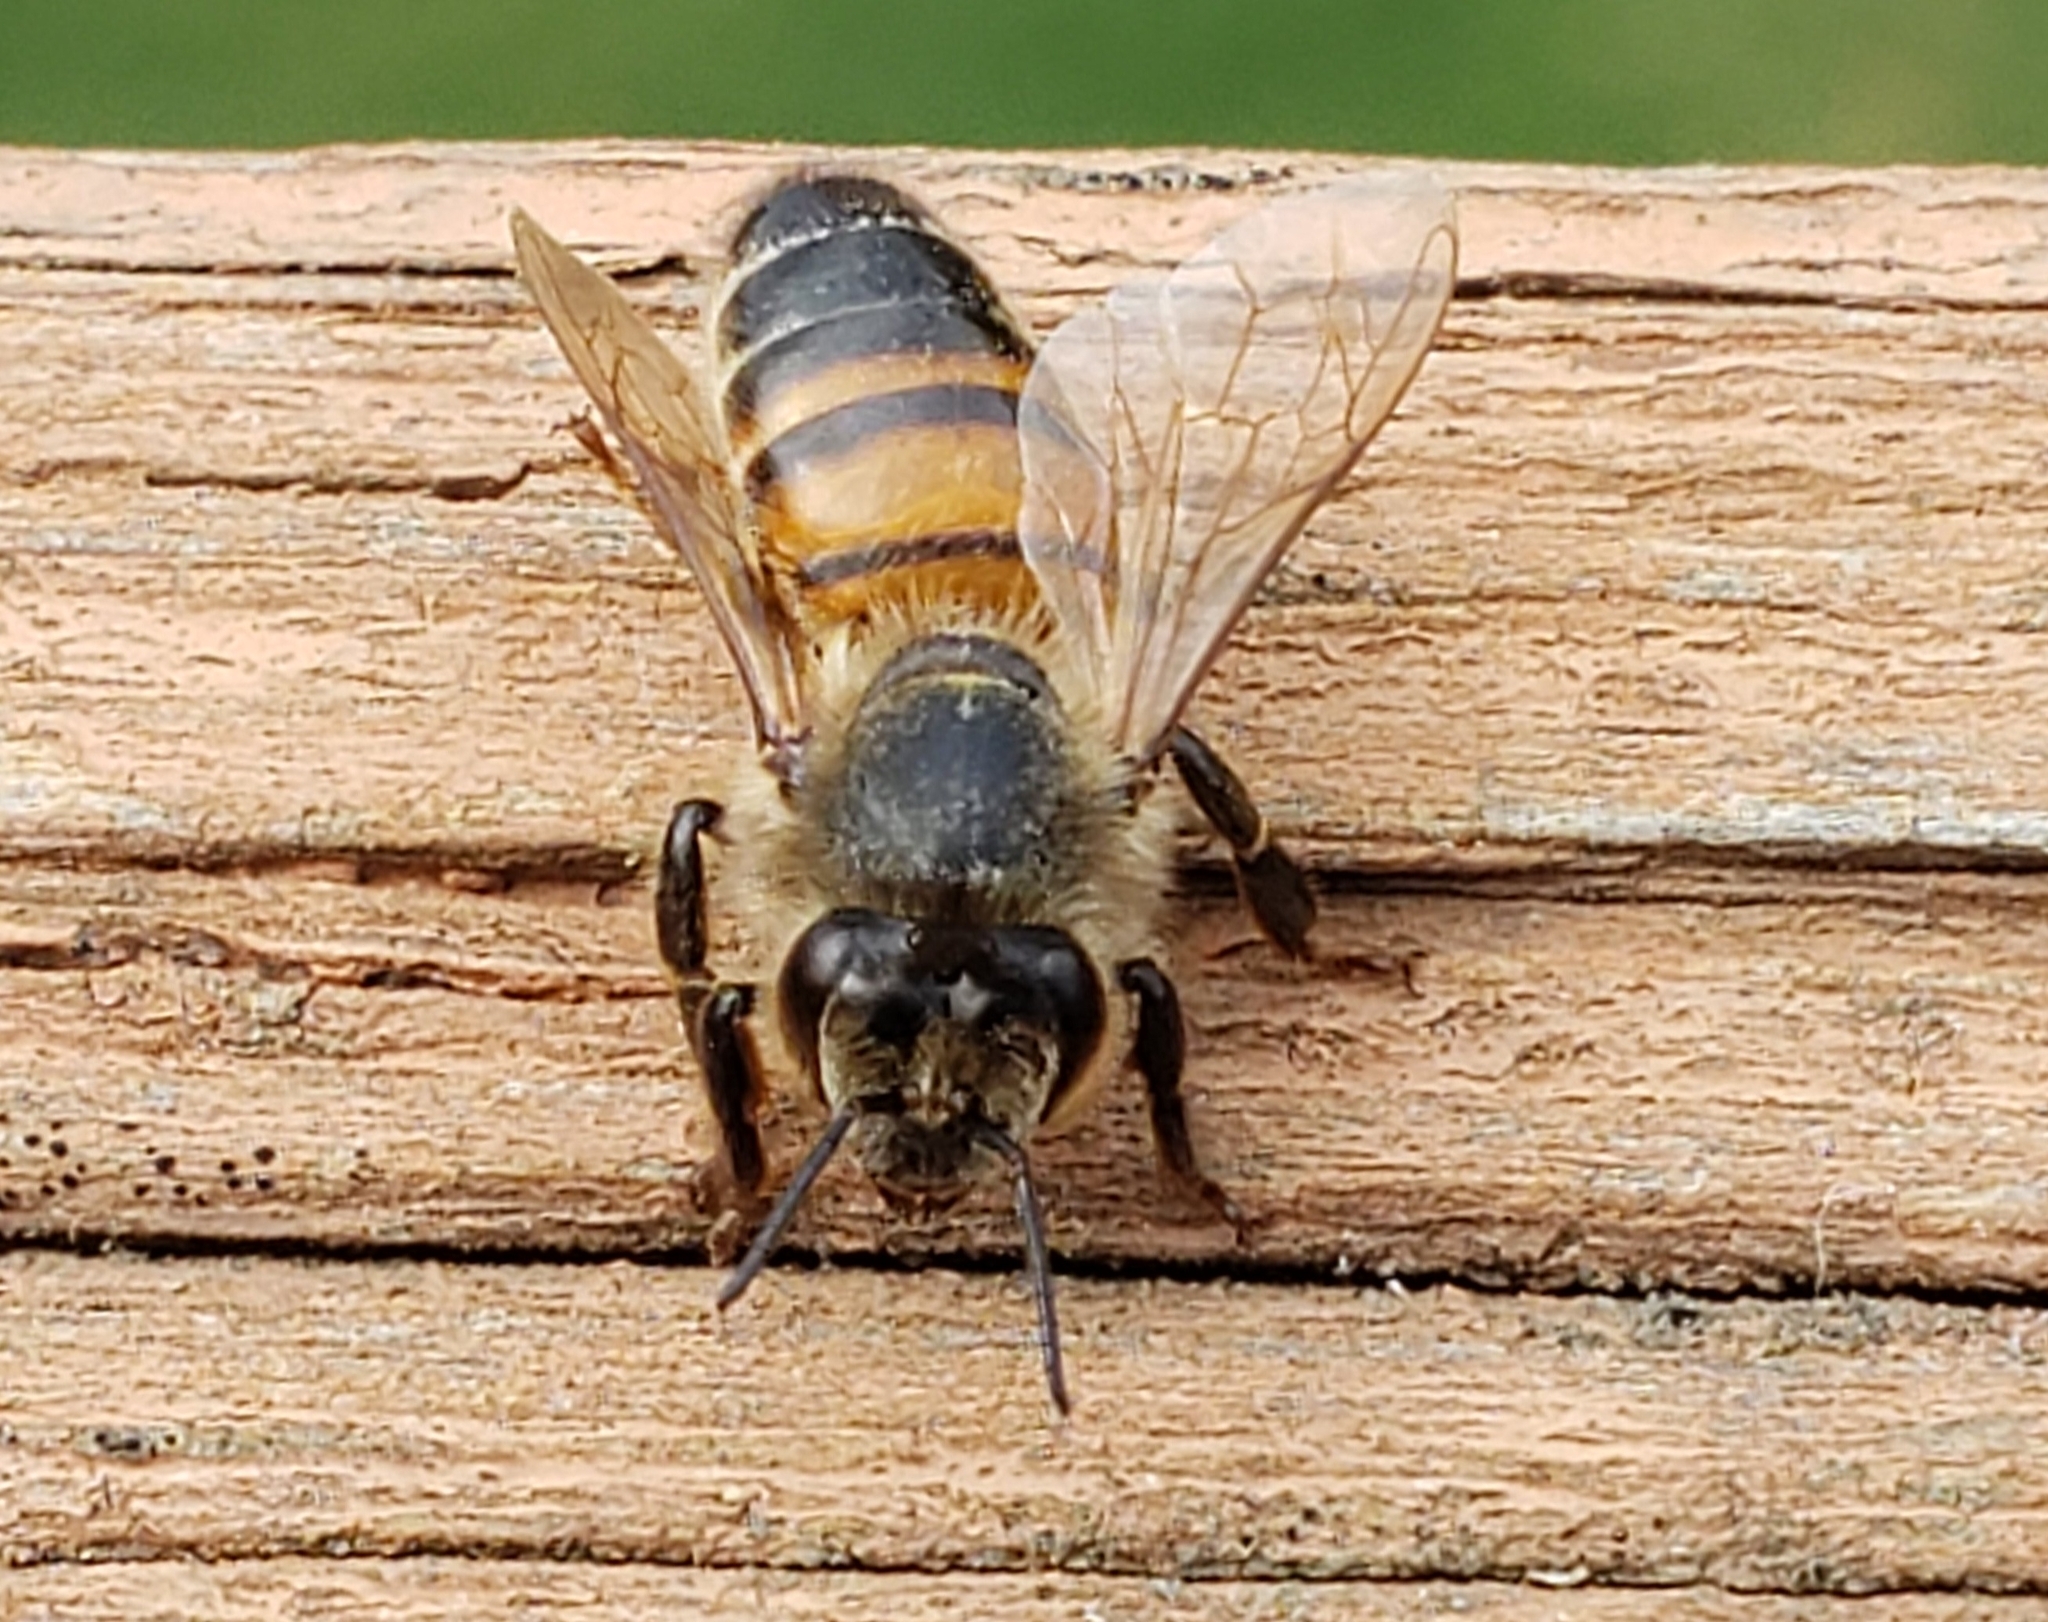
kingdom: Animalia
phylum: Arthropoda
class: Insecta
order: Hymenoptera
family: Apidae
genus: Apis
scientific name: Apis mellifera
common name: Honey bee
